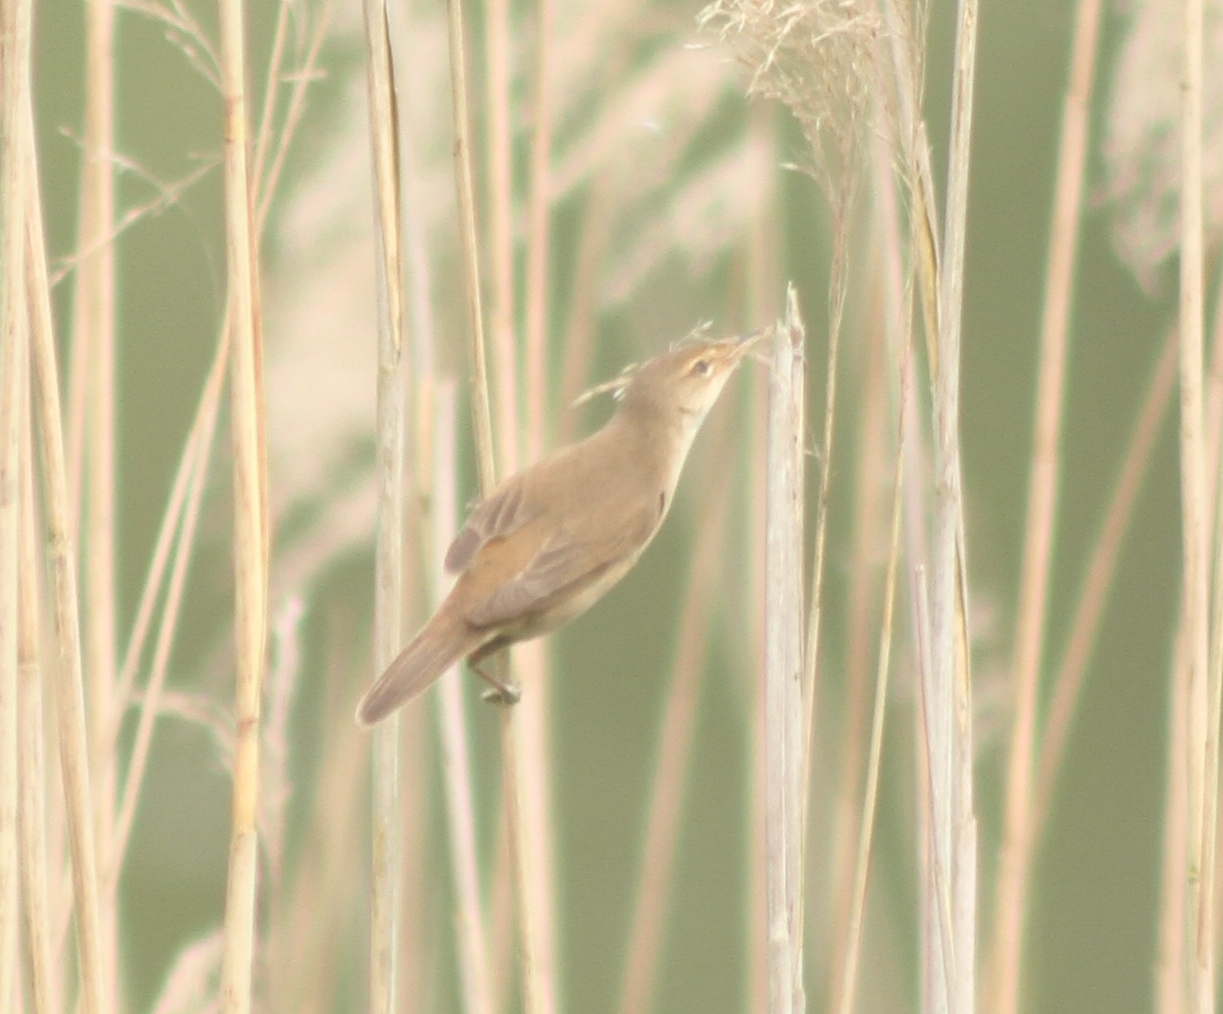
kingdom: Animalia
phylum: Chordata
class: Aves
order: Passeriformes
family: Acrocephalidae
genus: Acrocephalus
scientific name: Acrocephalus scirpaceus
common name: Eurasian reed warbler
